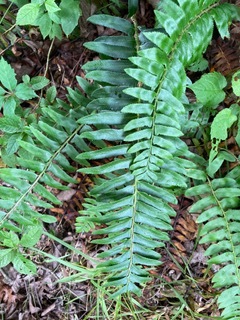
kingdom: Plantae
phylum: Tracheophyta
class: Polypodiopsida
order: Polypodiales
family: Dryopteridaceae
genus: Polystichum
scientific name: Polystichum acrostichoides
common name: Christmas fern
